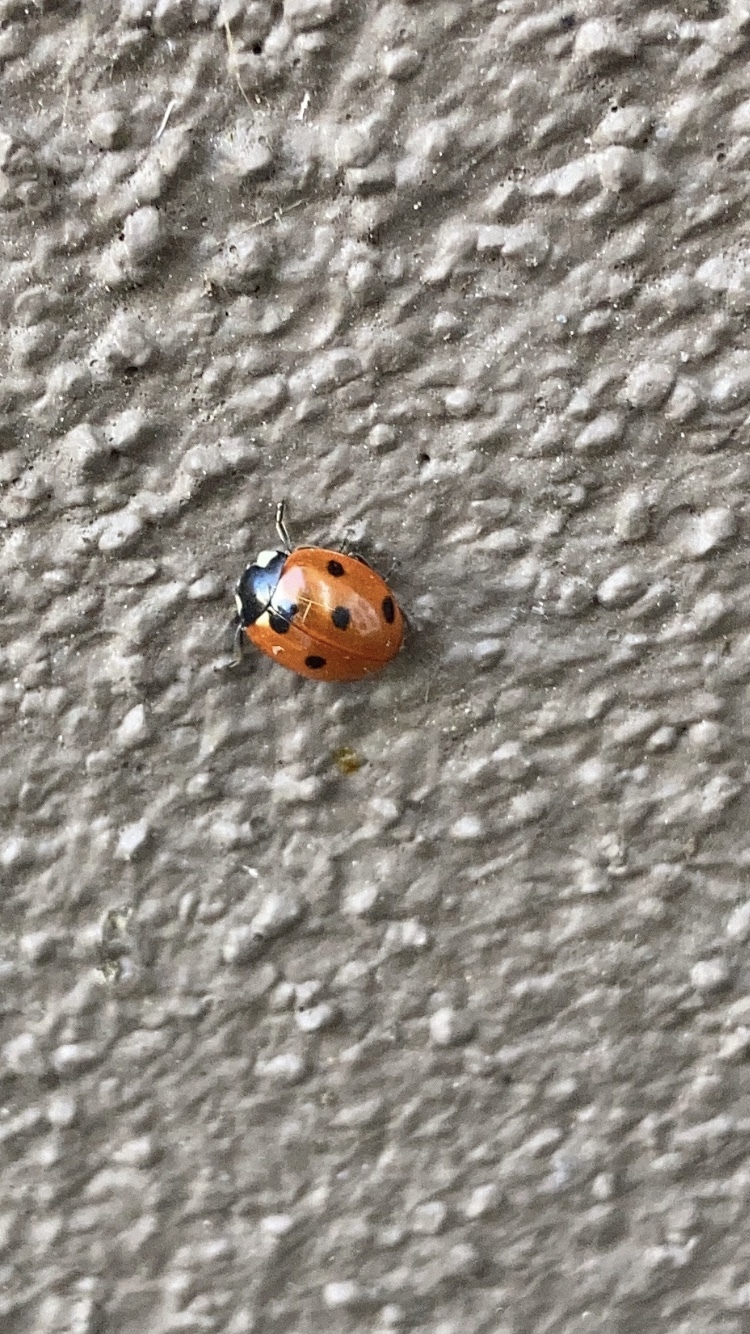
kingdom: Animalia
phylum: Arthropoda
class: Insecta
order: Coleoptera
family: Coccinellidae
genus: Coccinella
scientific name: Coccinella septempunctata
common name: Sevenspotted lady beetle
